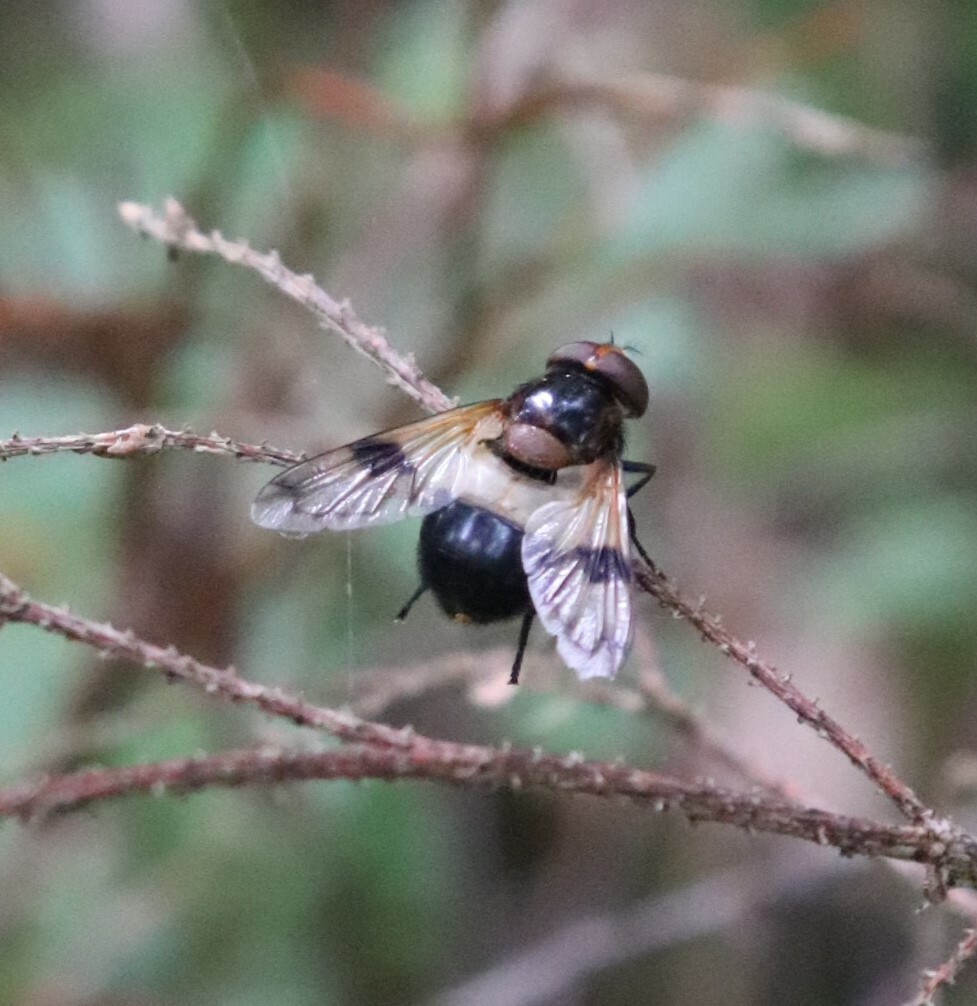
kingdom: Animalia
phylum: Arthropoda
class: Insecta
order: Diptera
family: Syrphidae
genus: Volucella
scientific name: Volucella pellucens
